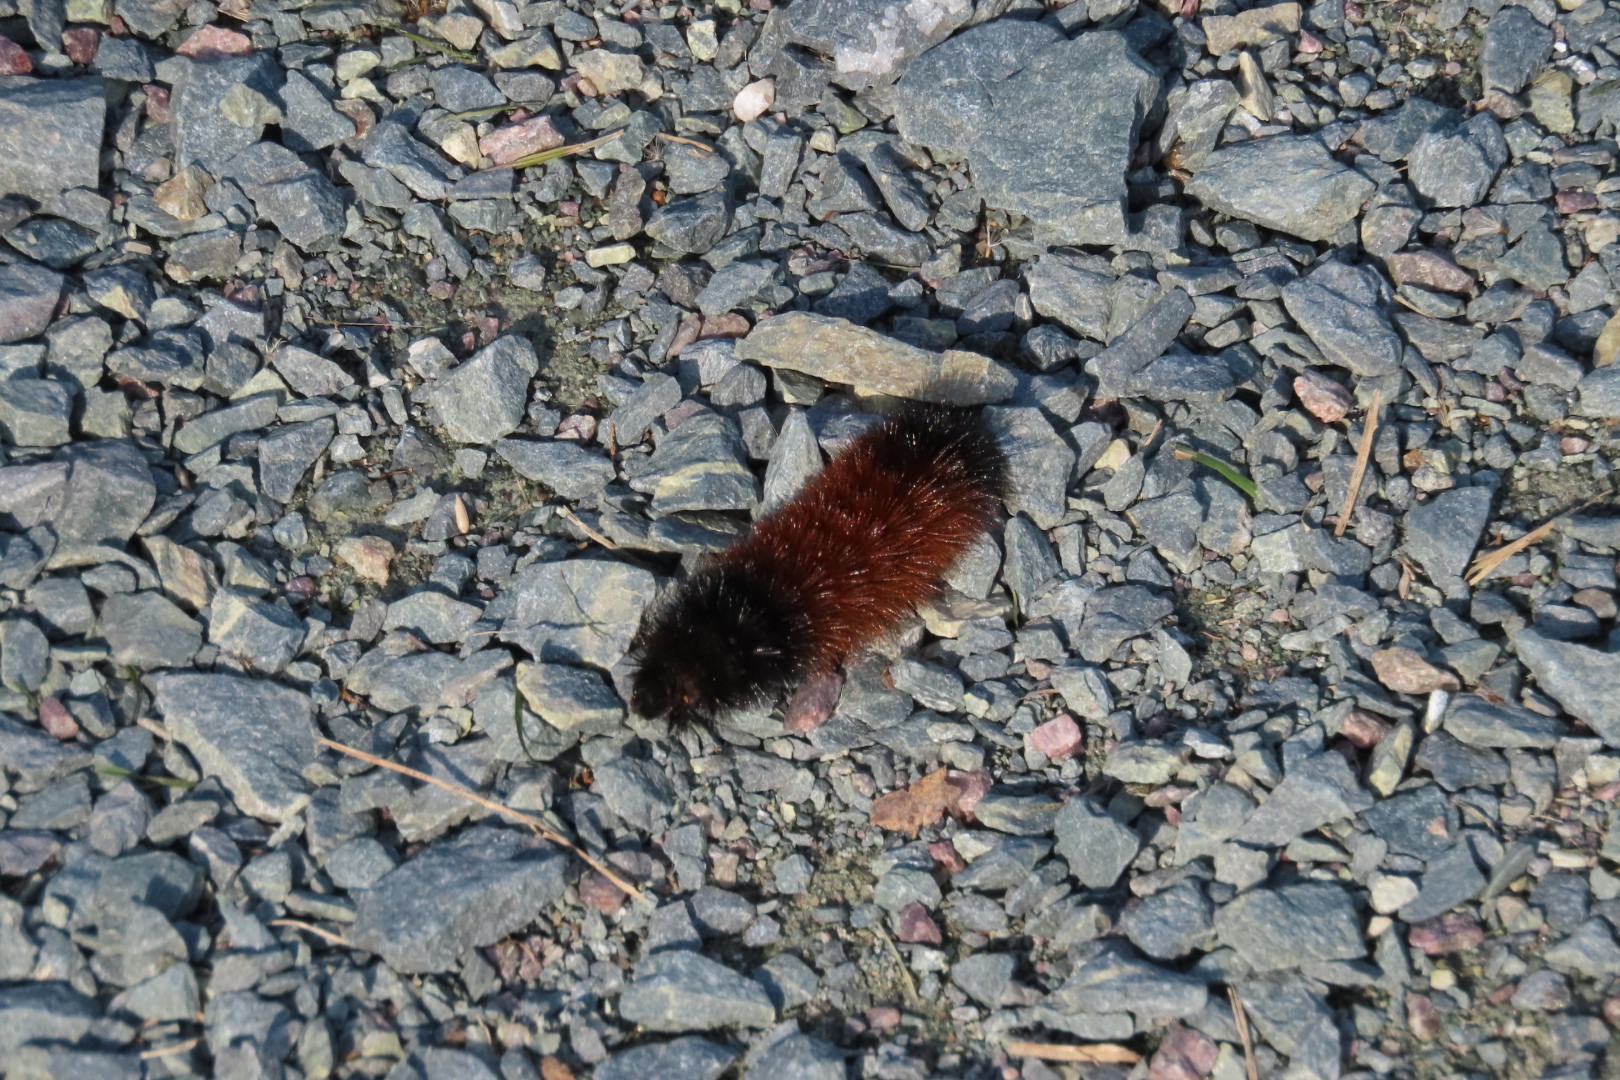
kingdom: Animalia
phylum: Arthropoda
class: Insecta
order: Lepidoptera
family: Erebidae
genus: Pyrrharctia
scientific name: Pyrrharctia isabella
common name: Isabella tiger moth
